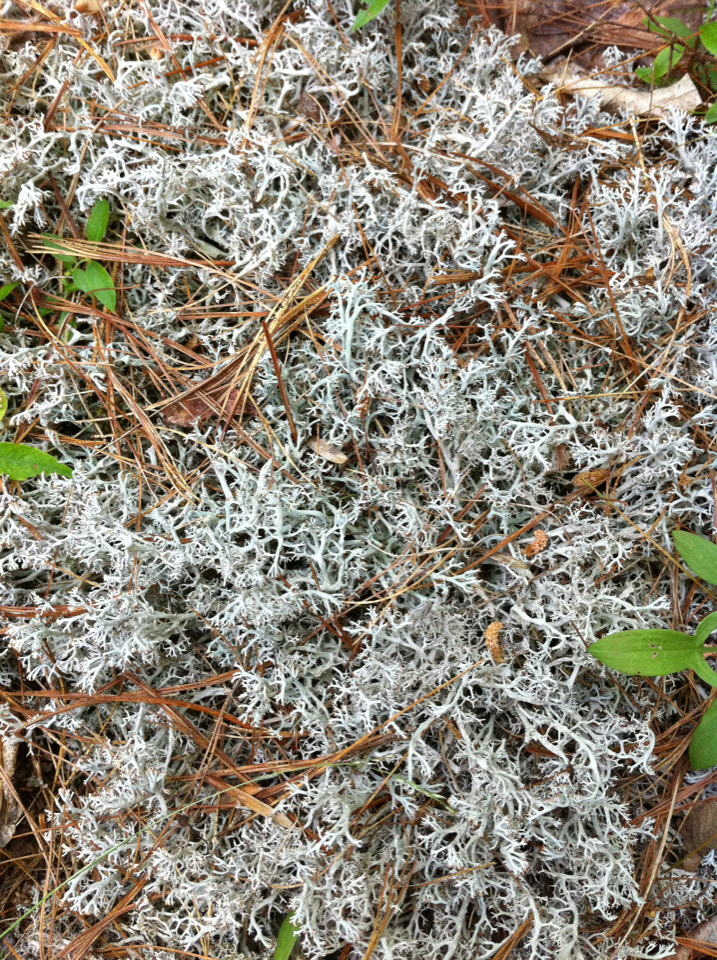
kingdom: Fungi
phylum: Ascomycota
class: Lecanoromycetes
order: Lecanorales
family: Cladoniaceae
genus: Cladonia
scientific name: Cladonia rangiferina
